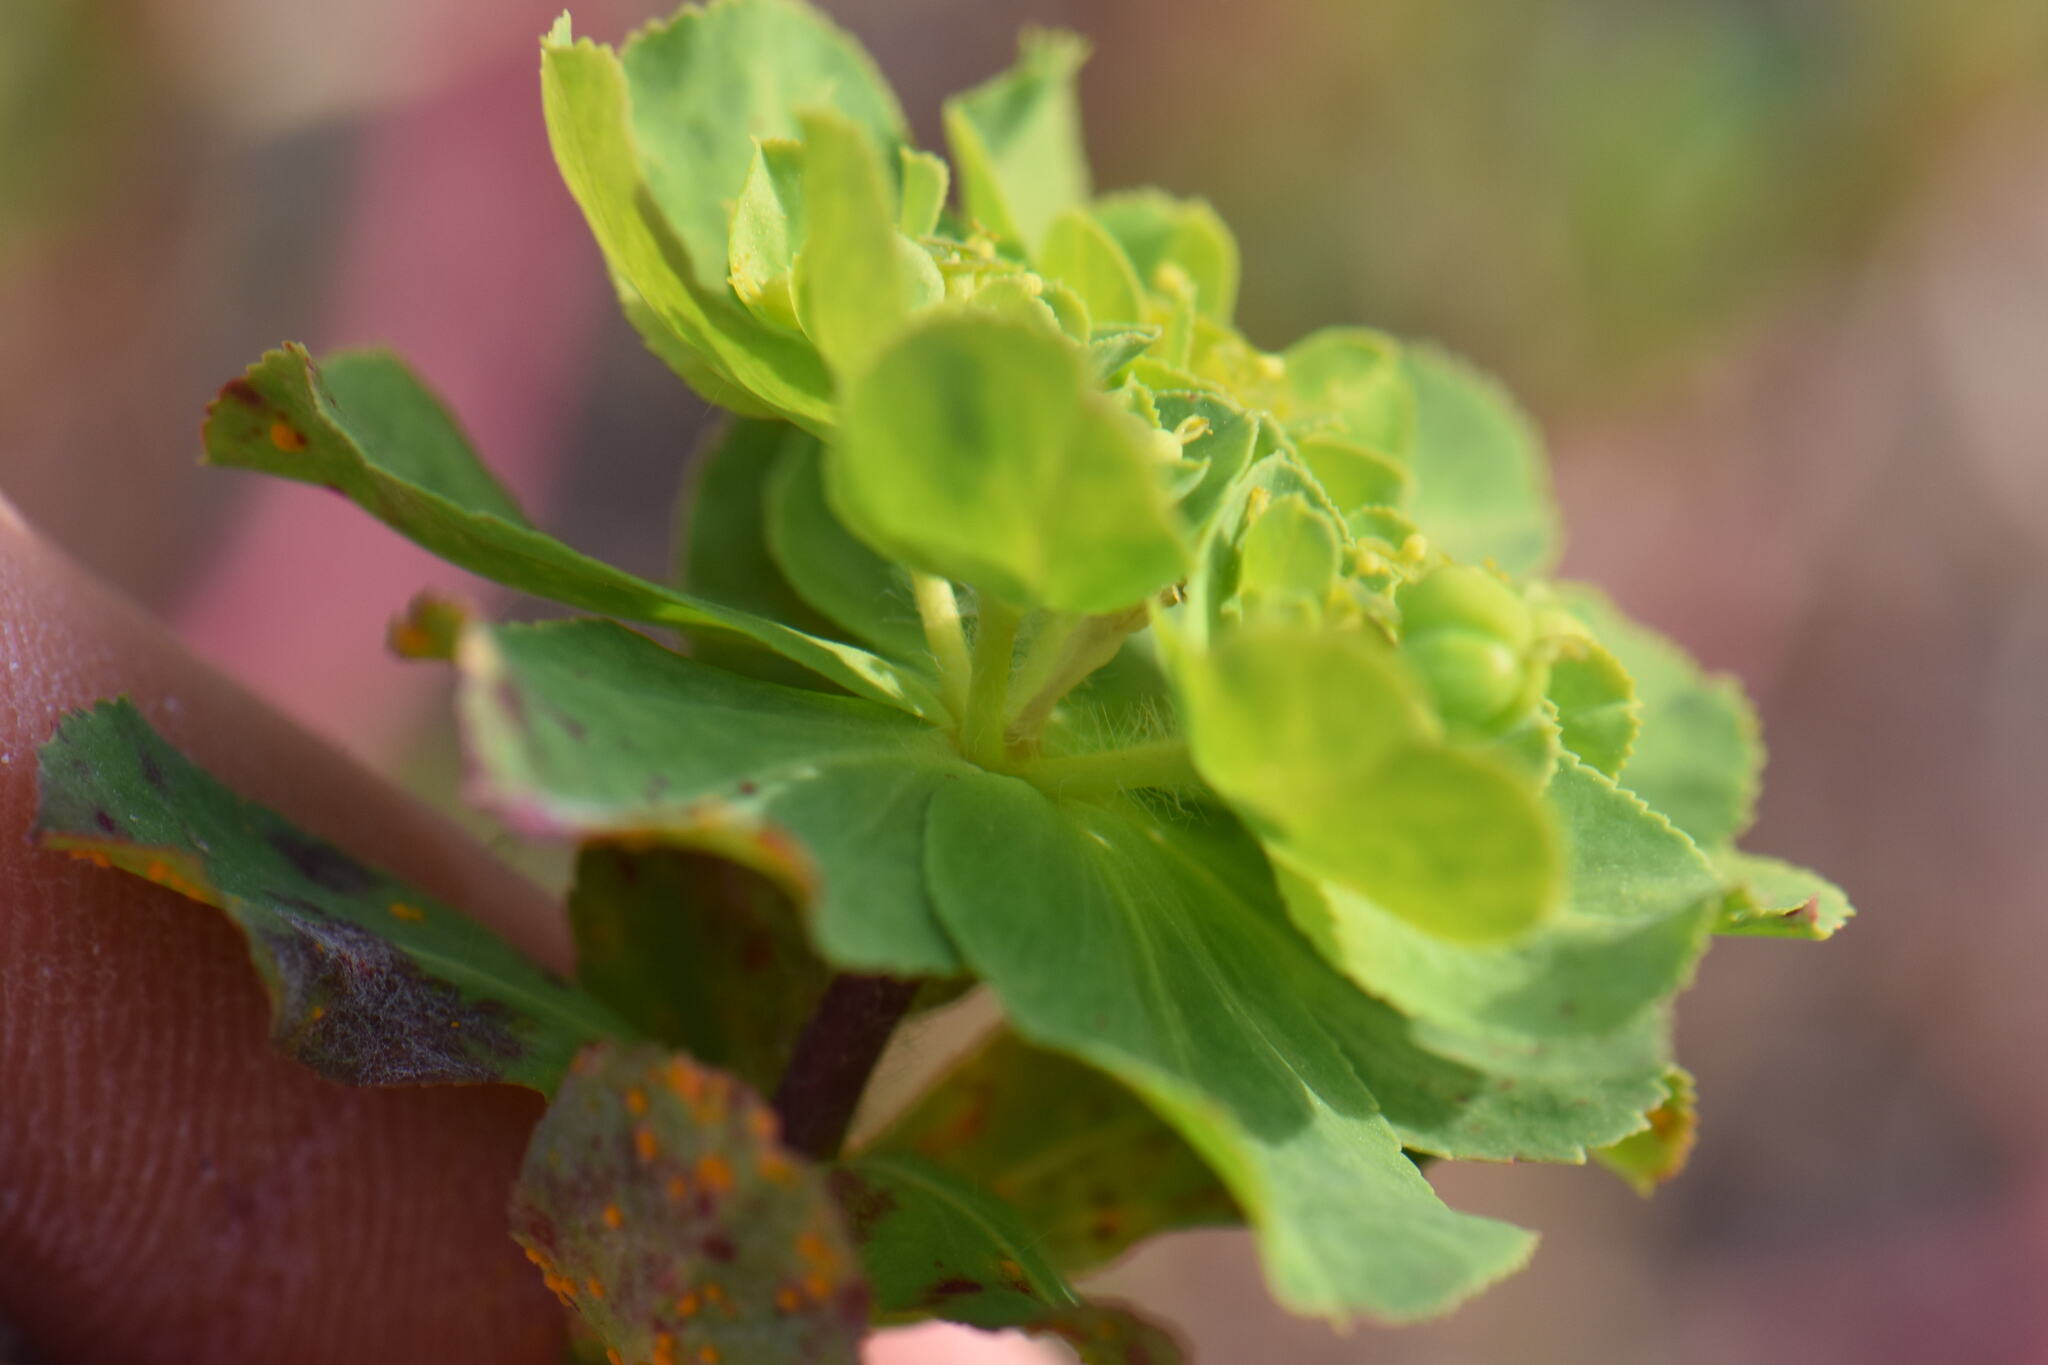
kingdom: Plantae
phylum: Tracheophyta
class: Magnoliopsida
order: Malpighiales
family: Euphorbiaceae
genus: Euphorbia
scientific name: Euphorbia helioscopia
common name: Sun spurge
